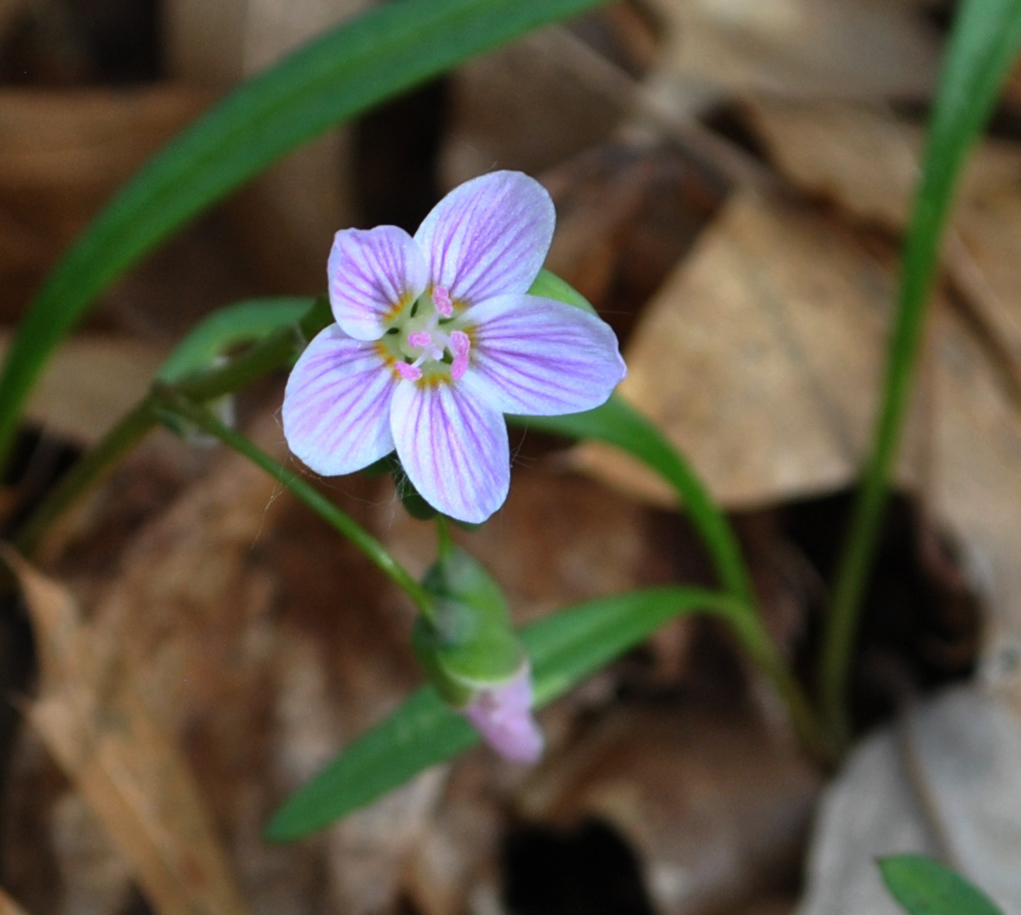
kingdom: Plantae
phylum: Tracheophyta
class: Magnoliopsida
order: Caryophyllales
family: Montiaceae
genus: Claytonia
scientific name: Claytonia virginica
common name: Virginia springbeauty
